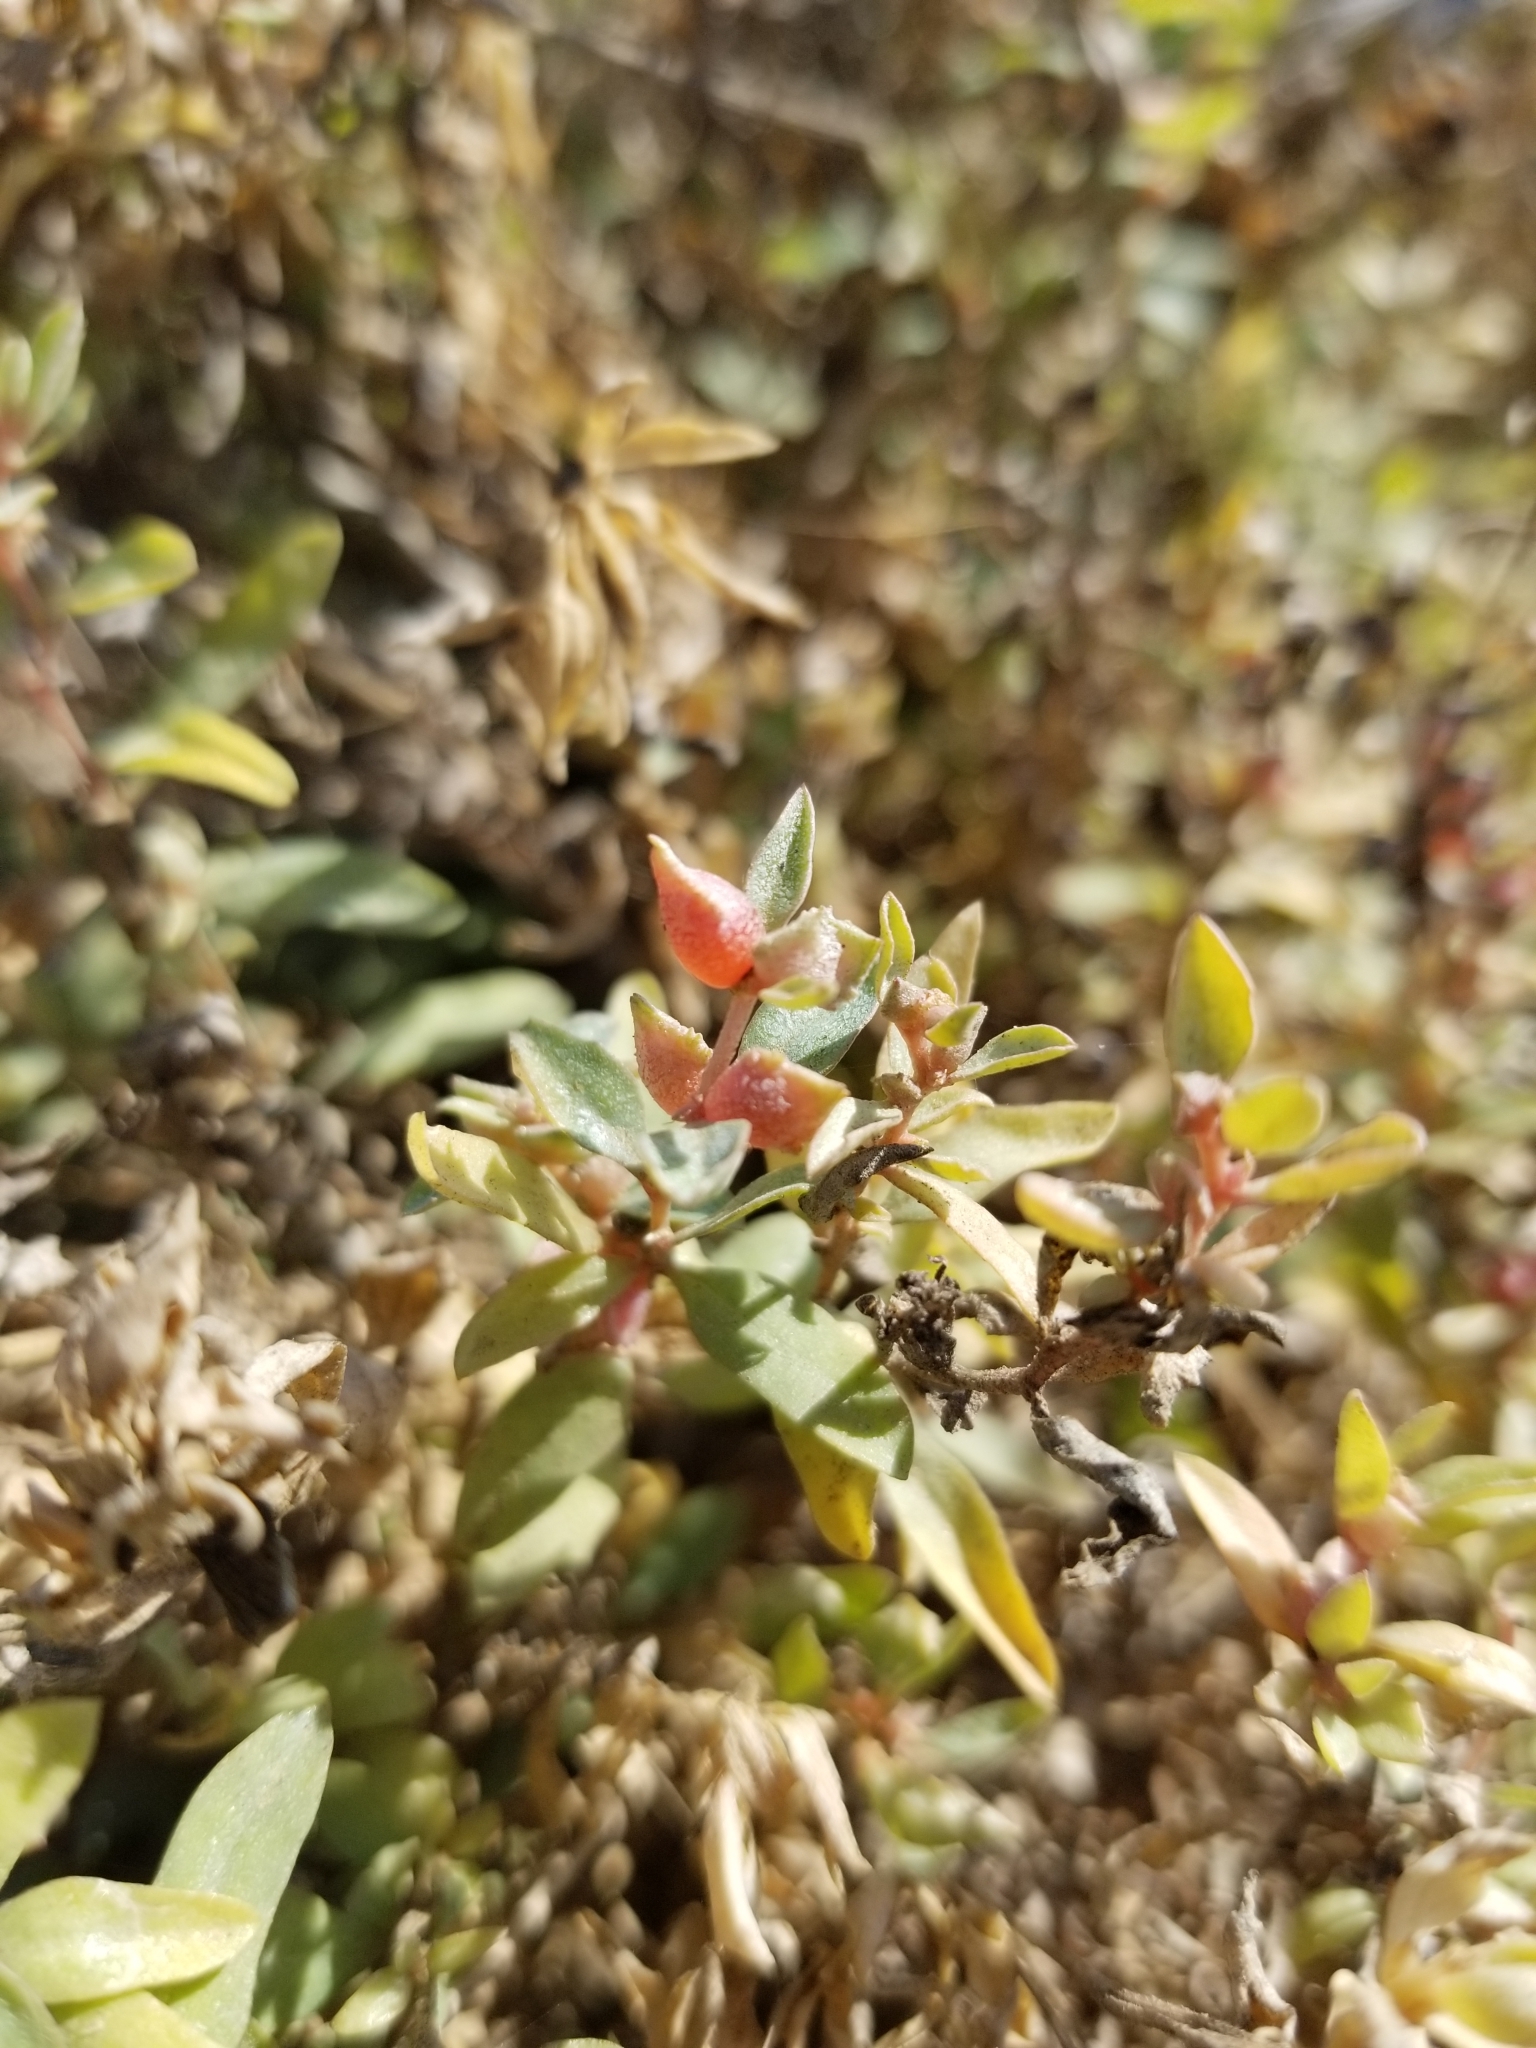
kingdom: Plantae
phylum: Tracheophyta
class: Magnoliopsida
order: Caryophyllales
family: Amaranthaceae
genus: Atriplex
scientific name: Atriplex semibaccata
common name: Australian saltbush
